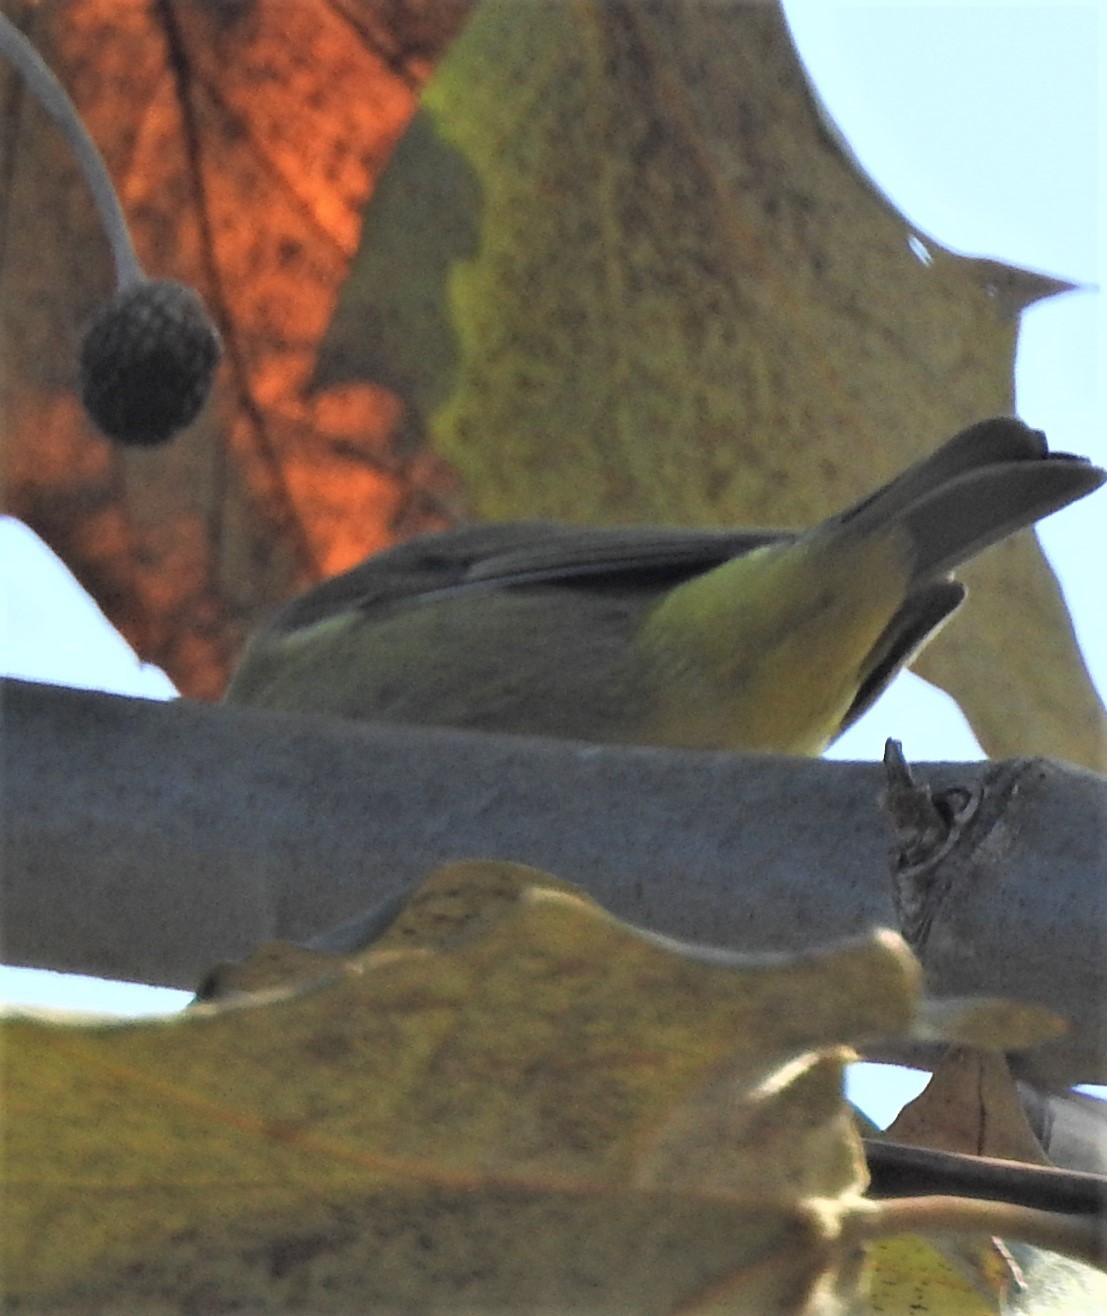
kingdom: Animalia
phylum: Chordata
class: Aves
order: Passeriformes
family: Parulidae
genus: Leiothlypis
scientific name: Leiothlypis celata
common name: Orange-crowned warbler
